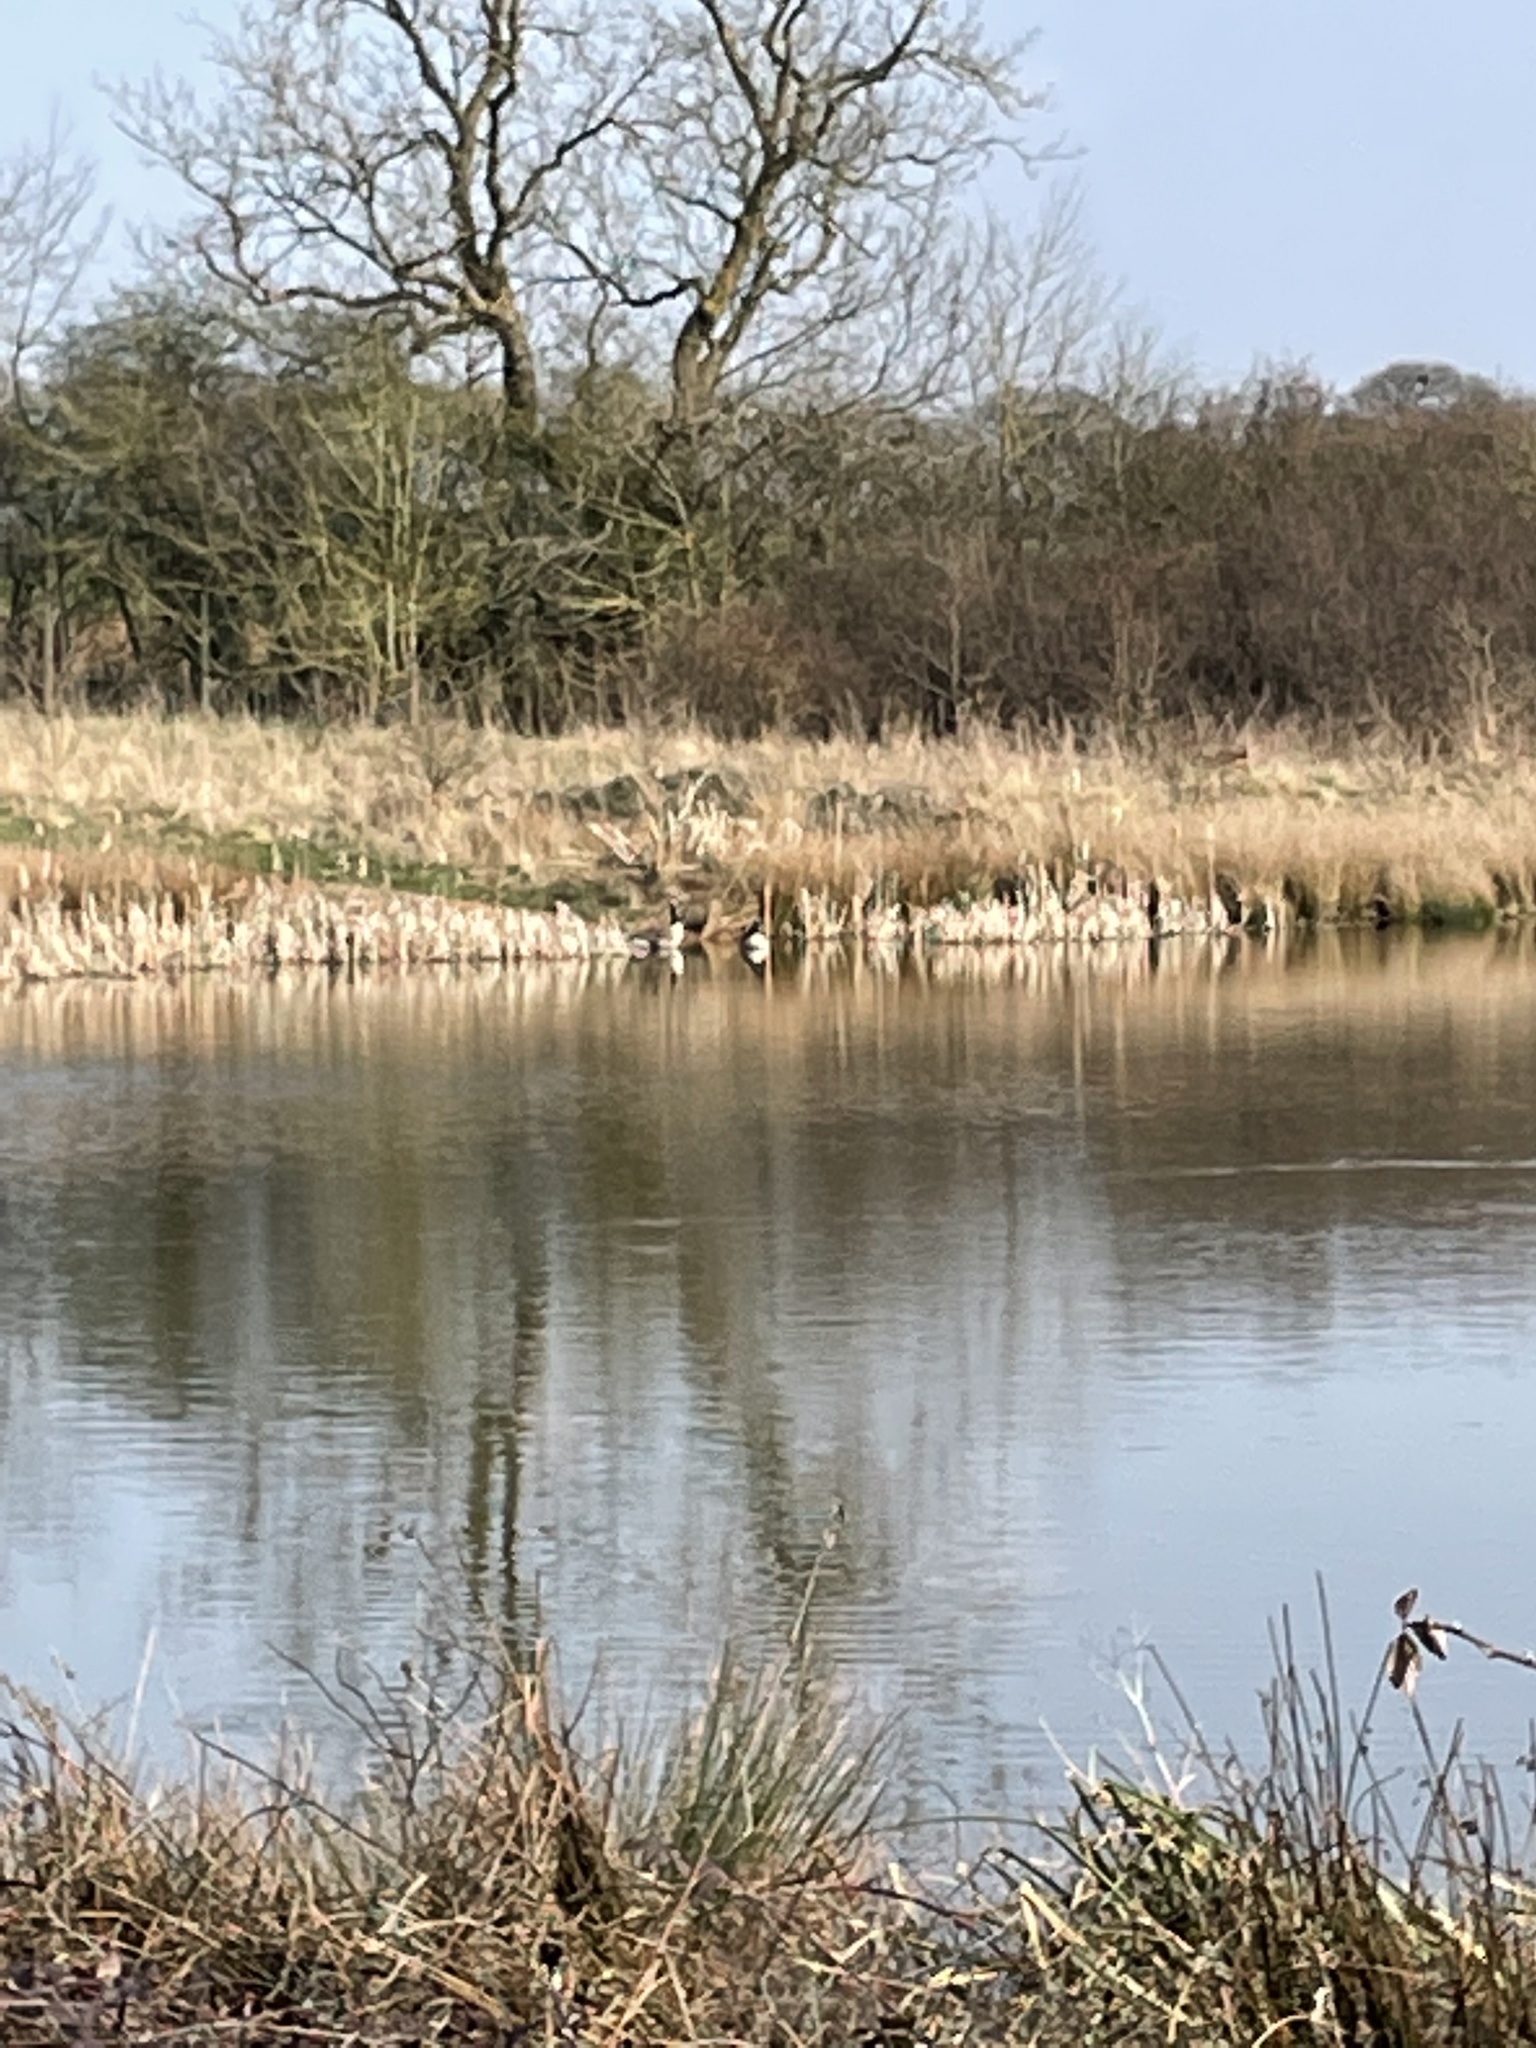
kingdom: Animalia
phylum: Chordata
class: Aves
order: Anseriformes
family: Anatidae
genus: Branta
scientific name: Branta canadensis
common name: Canada goose
